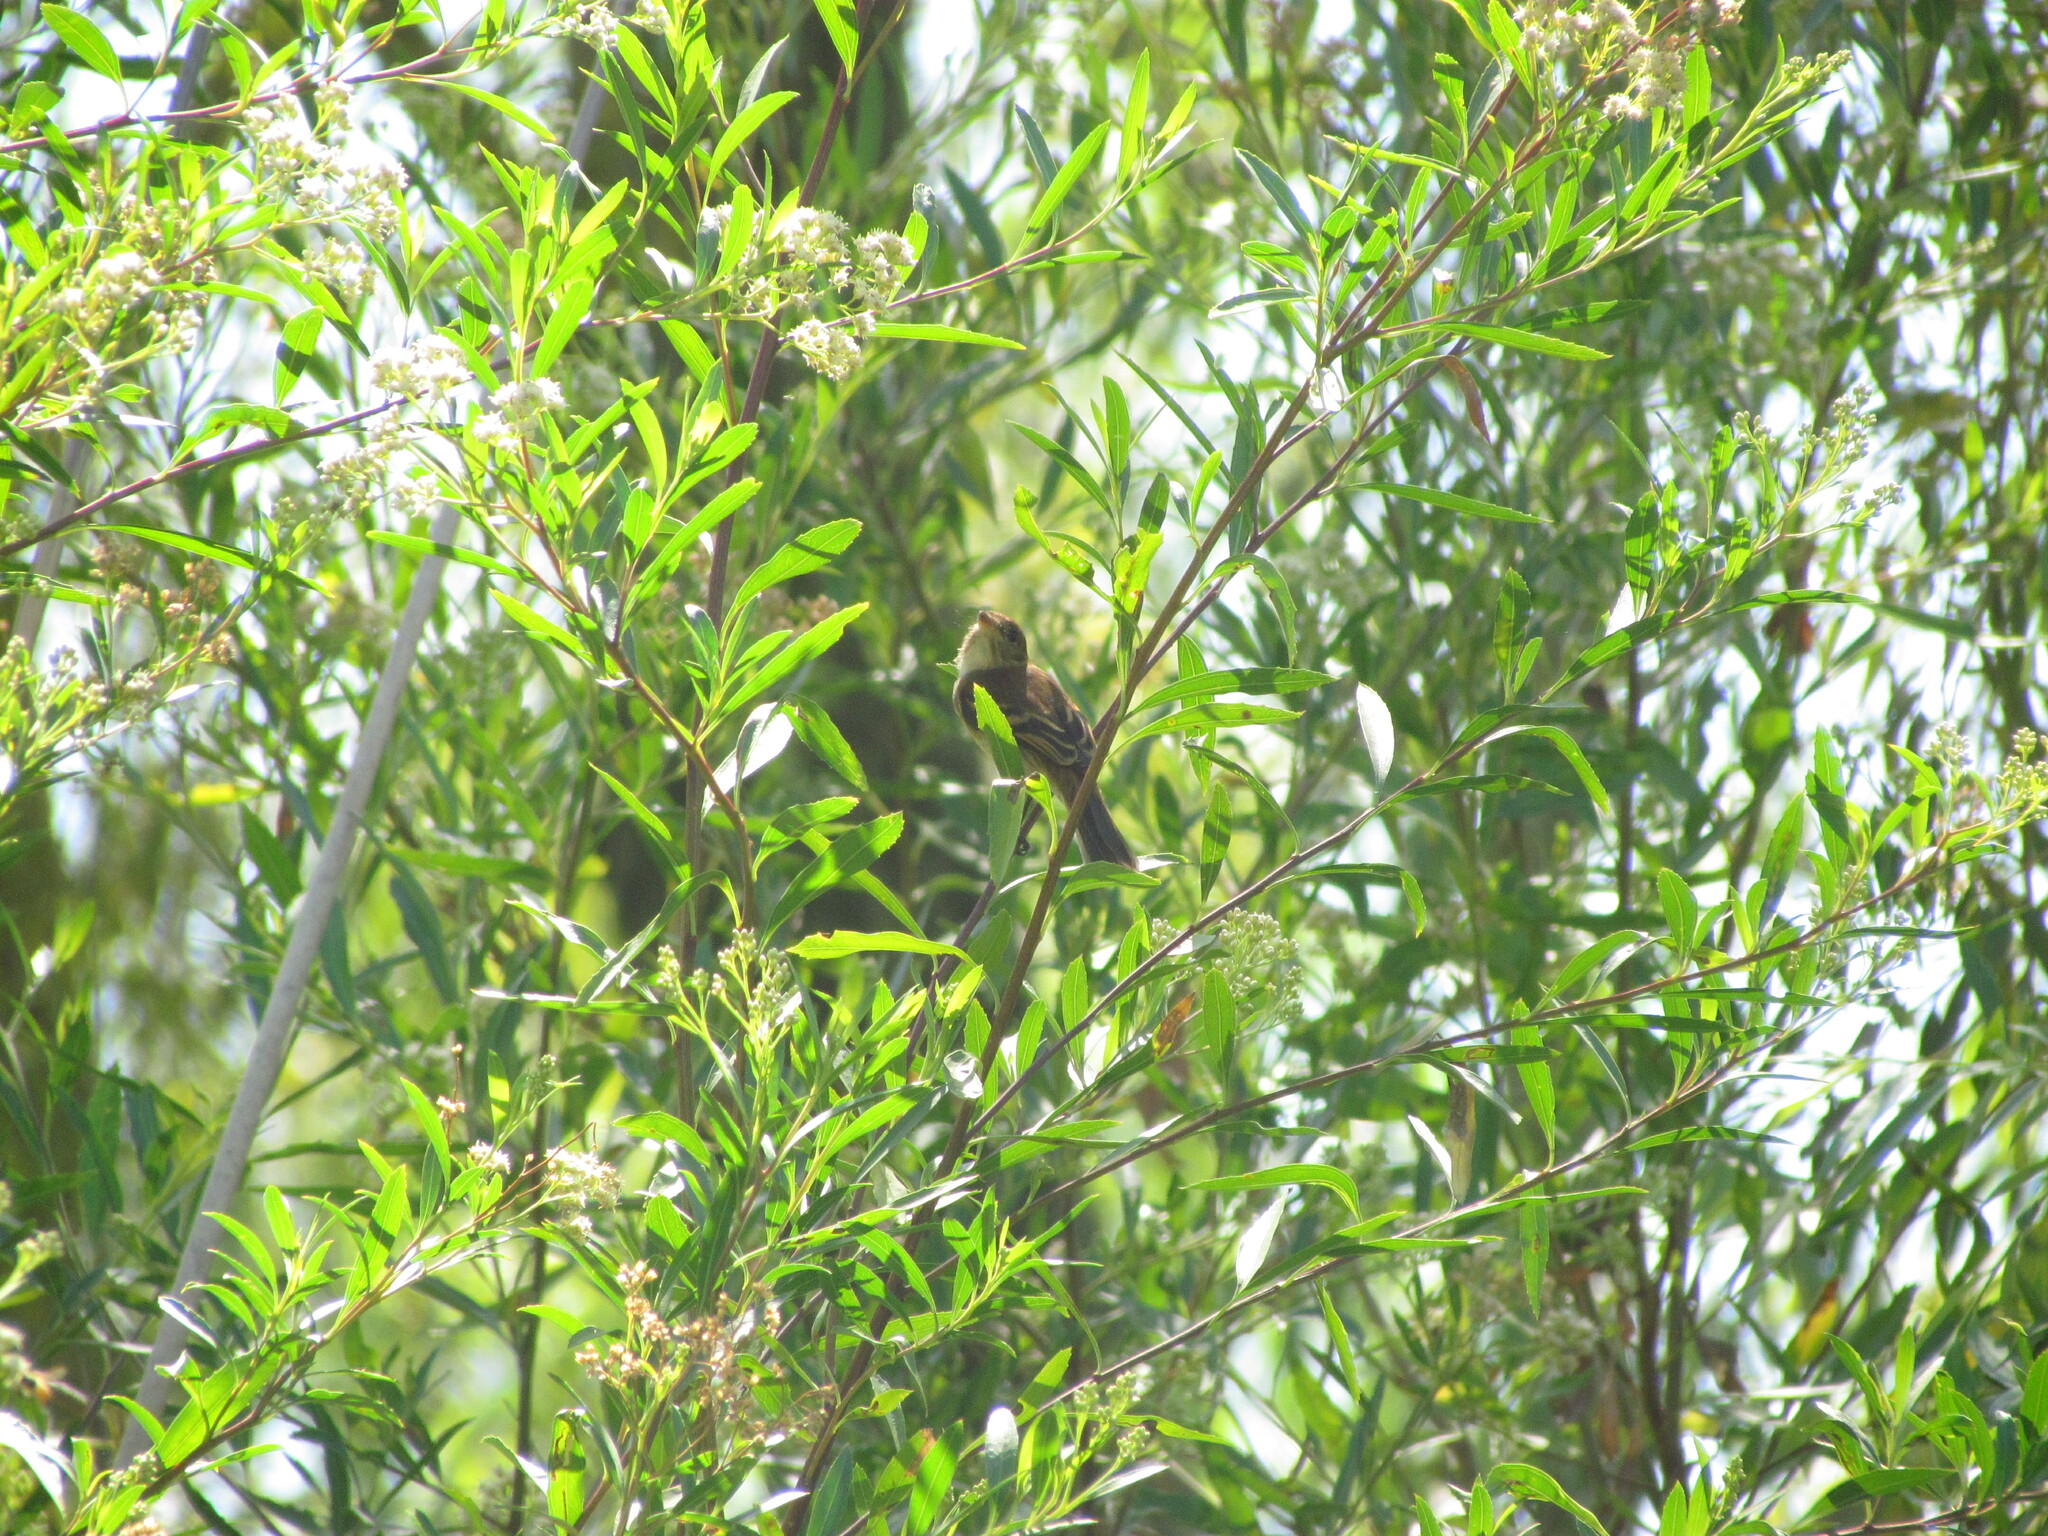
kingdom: Animalia
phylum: Chordata
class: Aves
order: Passeriformes
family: Tyrannidae
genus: Myiophobus
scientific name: Myiophobus fasciatus
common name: Bran-colored flycatcher
